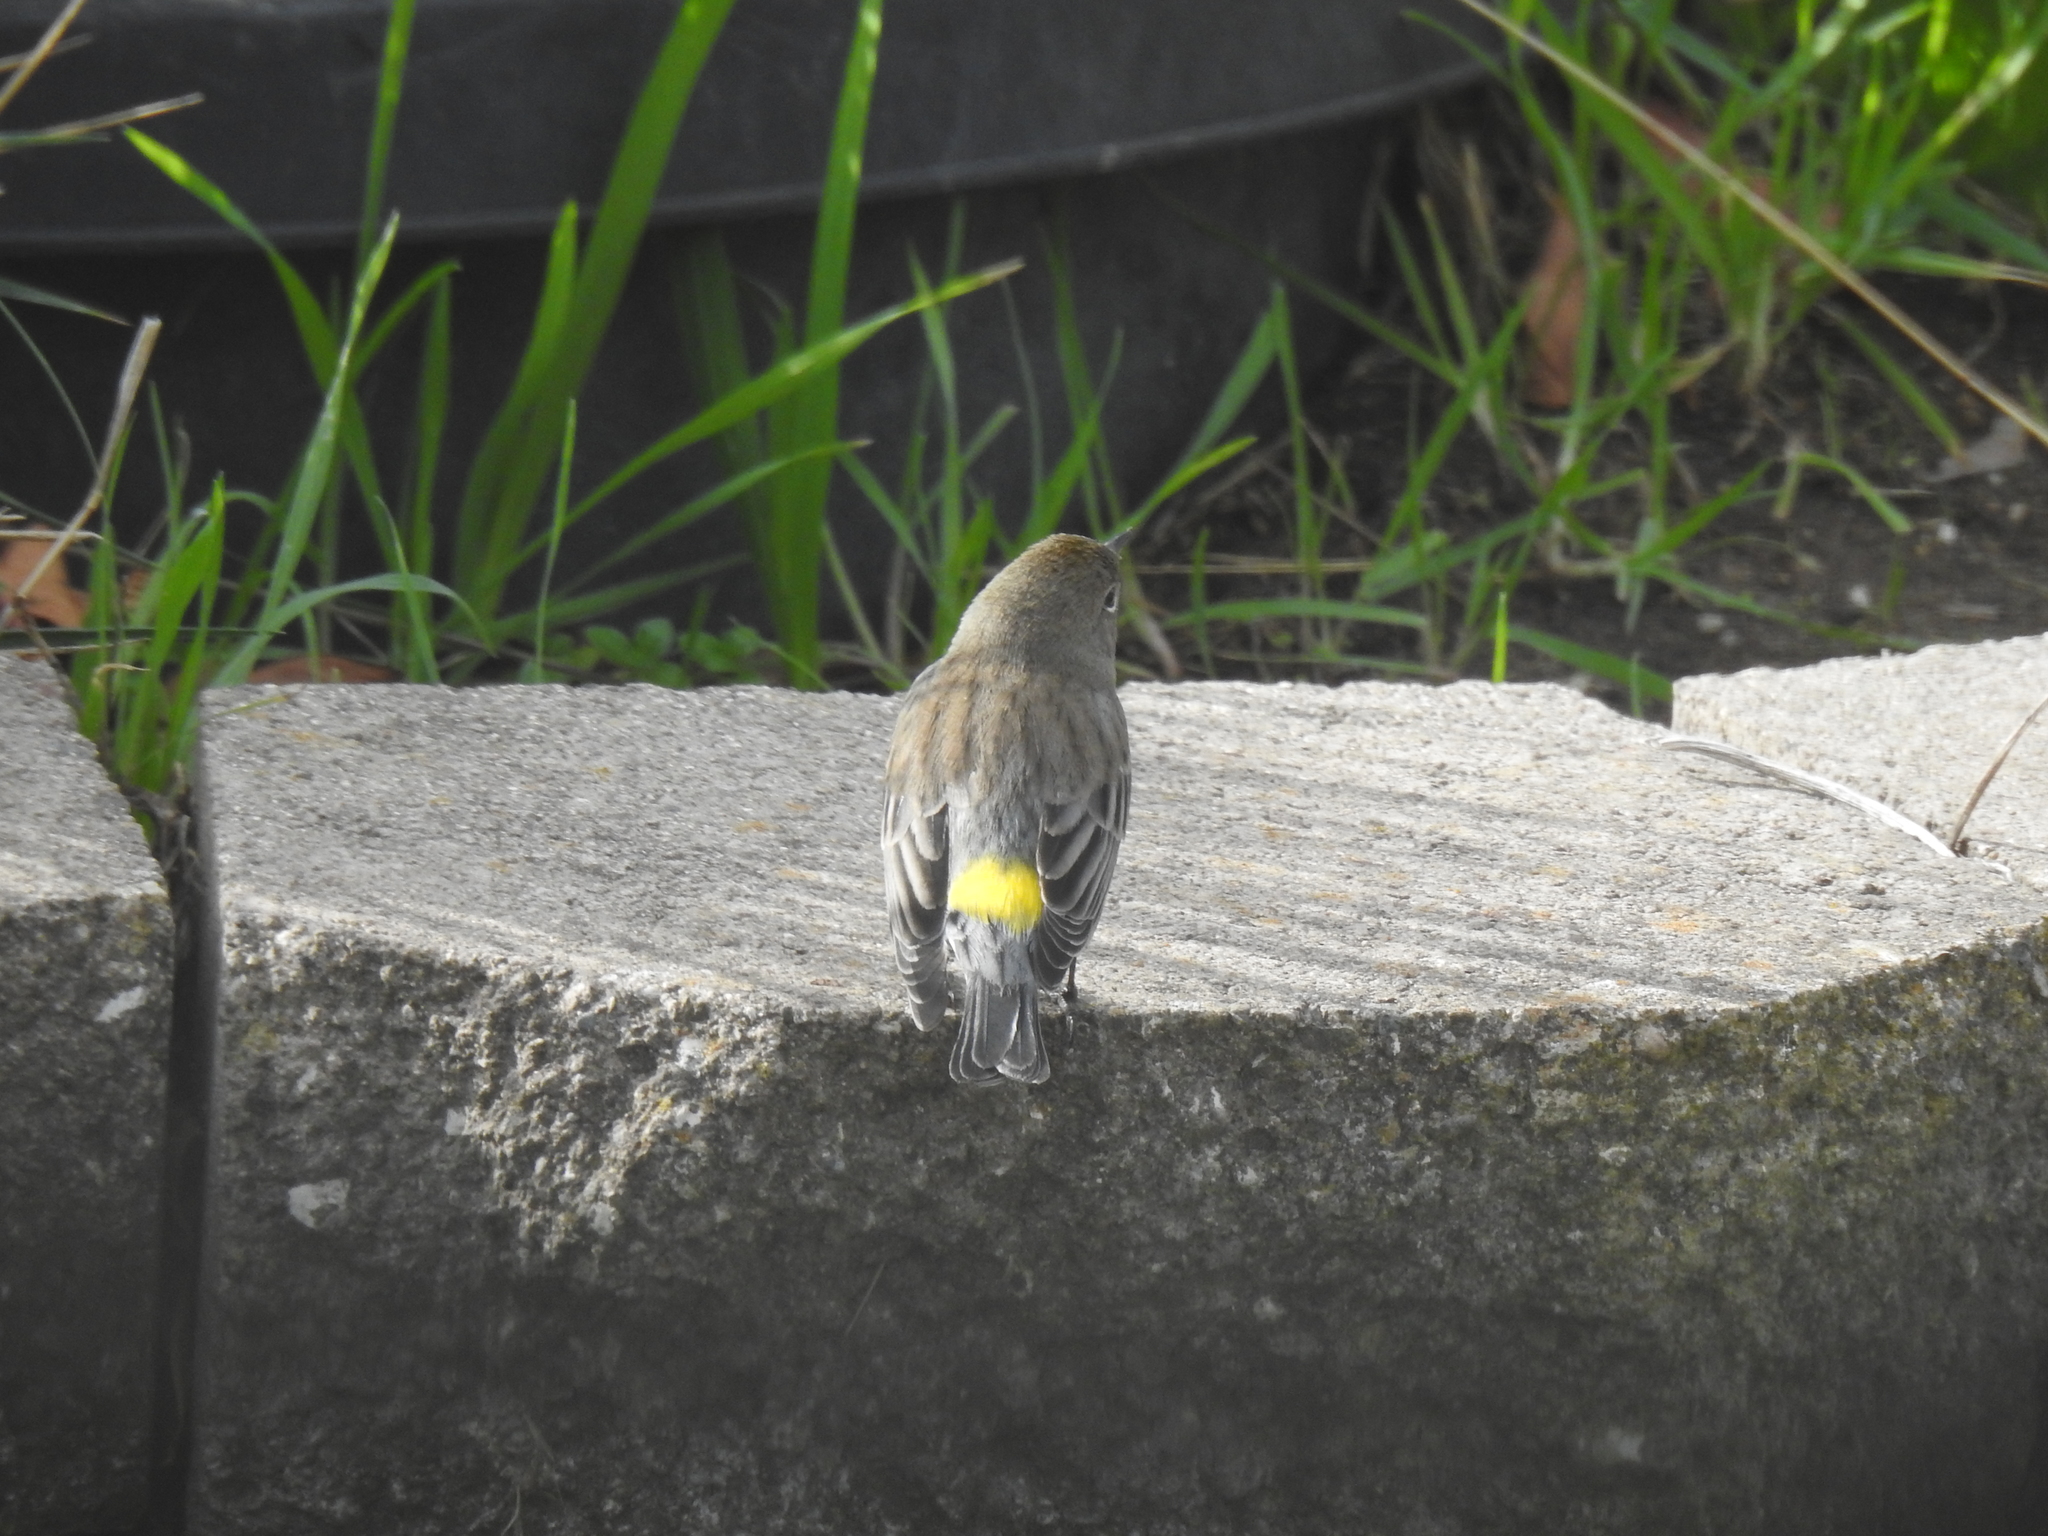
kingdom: Animalia
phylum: Chordata
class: Aves
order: Passeriformes
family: Parulidae
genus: Setophaga
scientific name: Setophaga coronata
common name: Myrtle warbler
